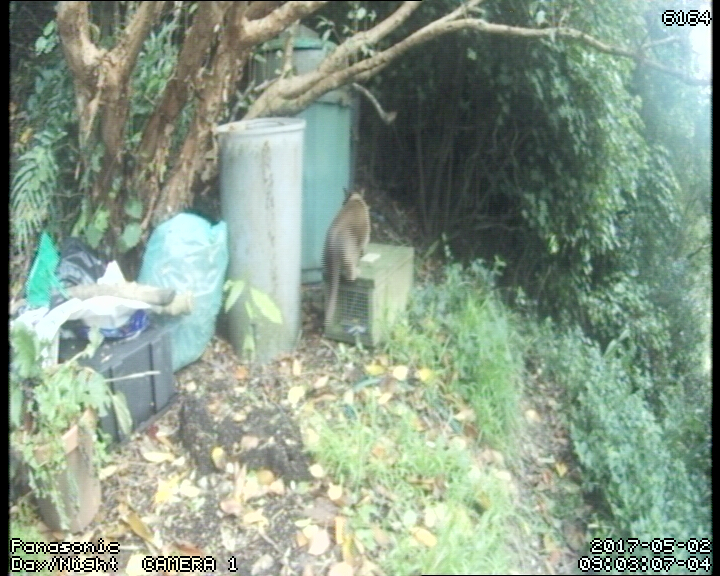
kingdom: Animalia
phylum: Chordata
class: Mammalia
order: Carnivora
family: Felidae
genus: Felis
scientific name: Felis catus
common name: Domestic cat
